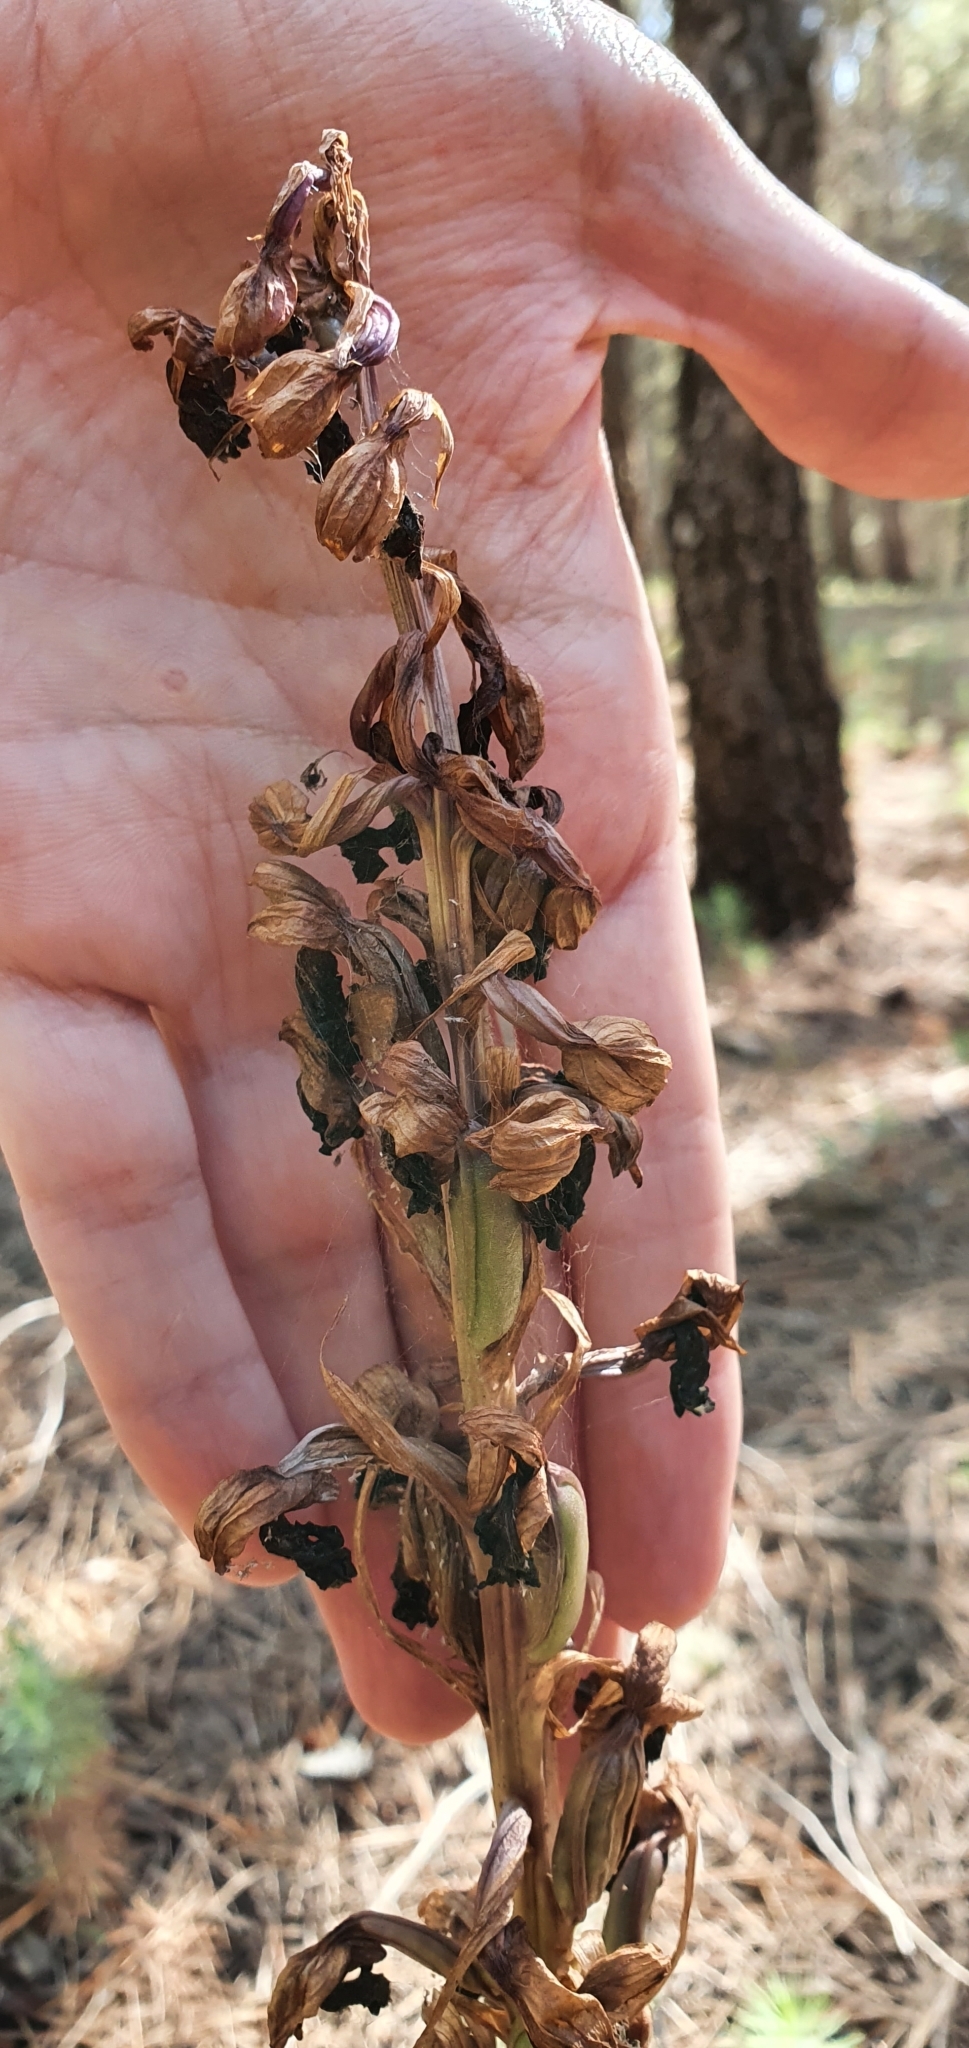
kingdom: Plantae
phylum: Tracheophyta
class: Liliopsida
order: Asparagales
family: Orchidaceae
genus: Himantoglossum
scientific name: Himantoglossum robertianum
